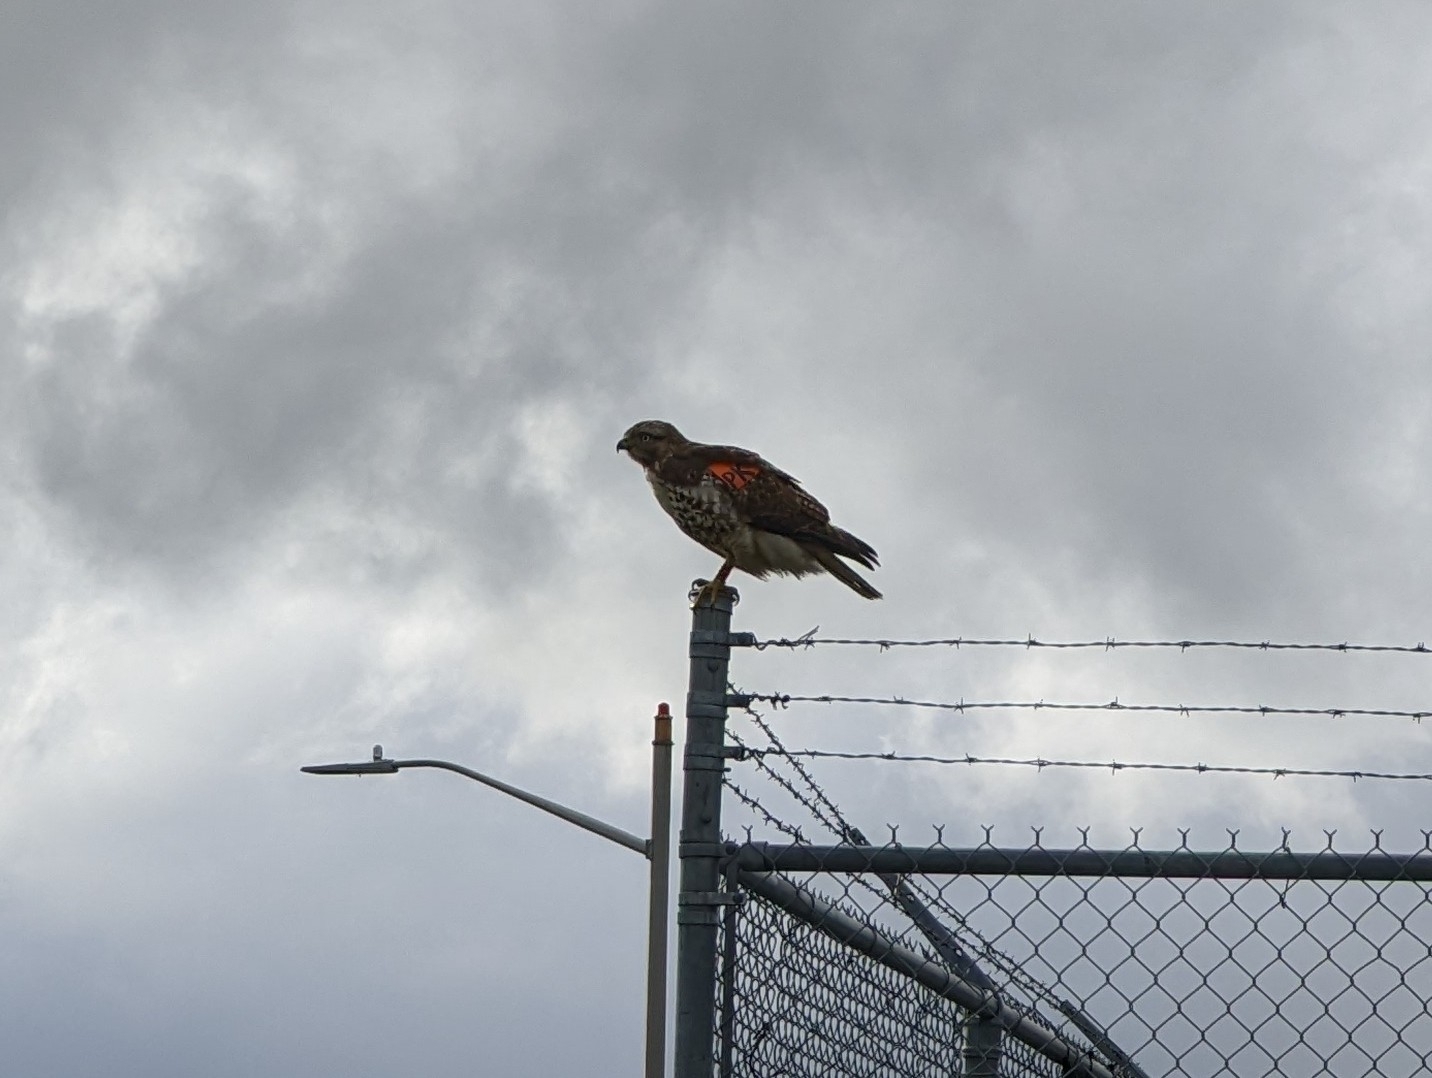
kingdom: Animalia
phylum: Chordata
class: Aves
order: Accipitriformes
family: Accipitridae
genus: Buteo
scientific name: Buteo jamaicensis
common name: Red-tailed hawk
